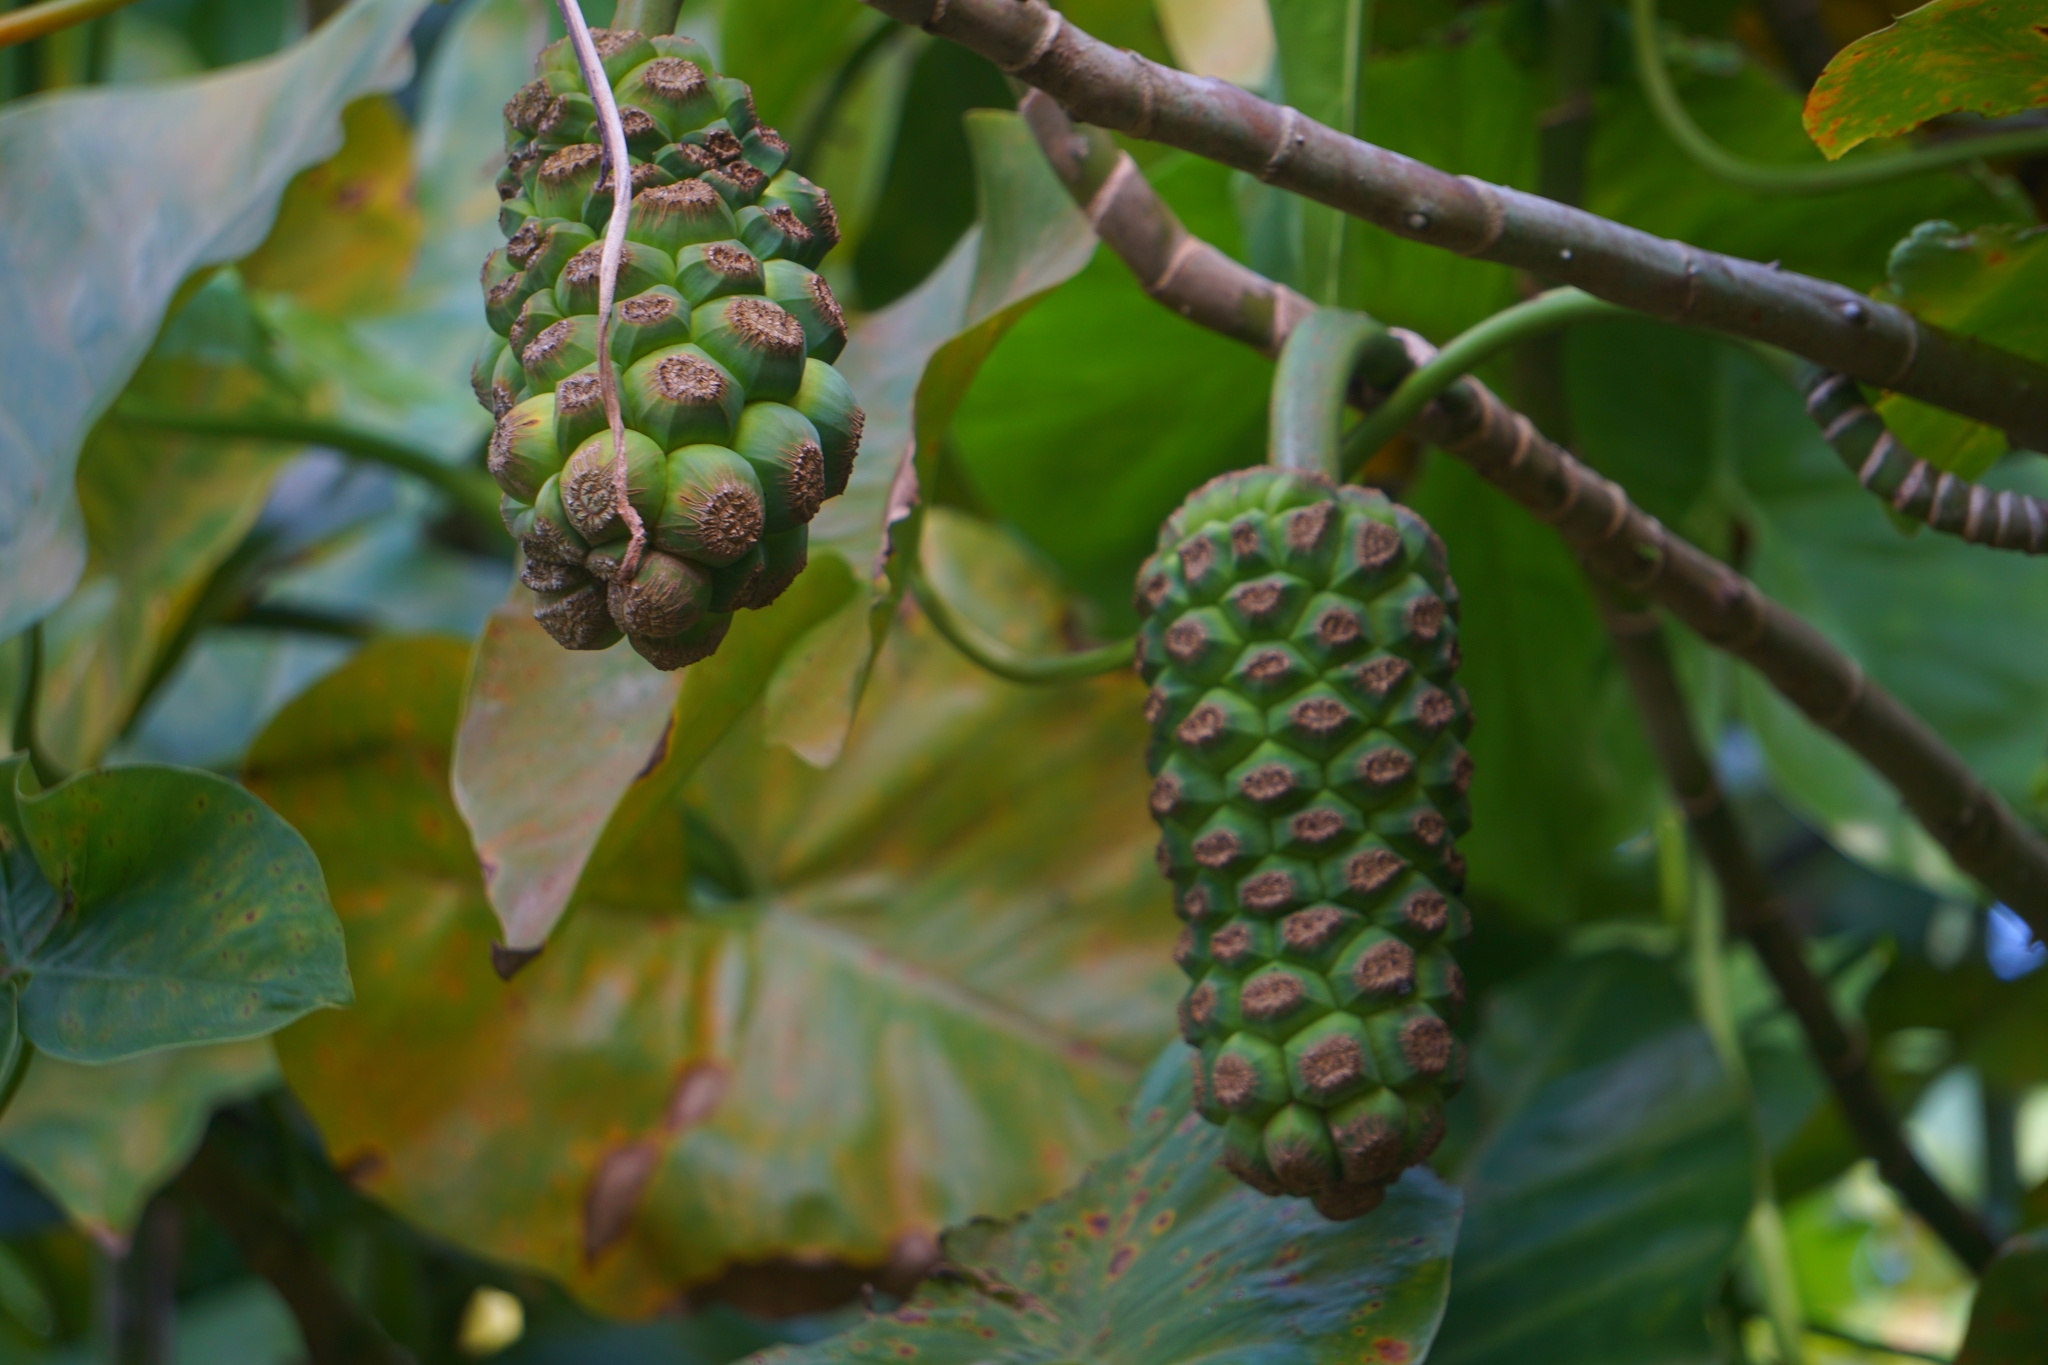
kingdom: Plantae
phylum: Tracheophyta
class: Liliopsida
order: Alismatales
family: Araceae
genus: Montrichardia
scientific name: Montrichardia arborescens
